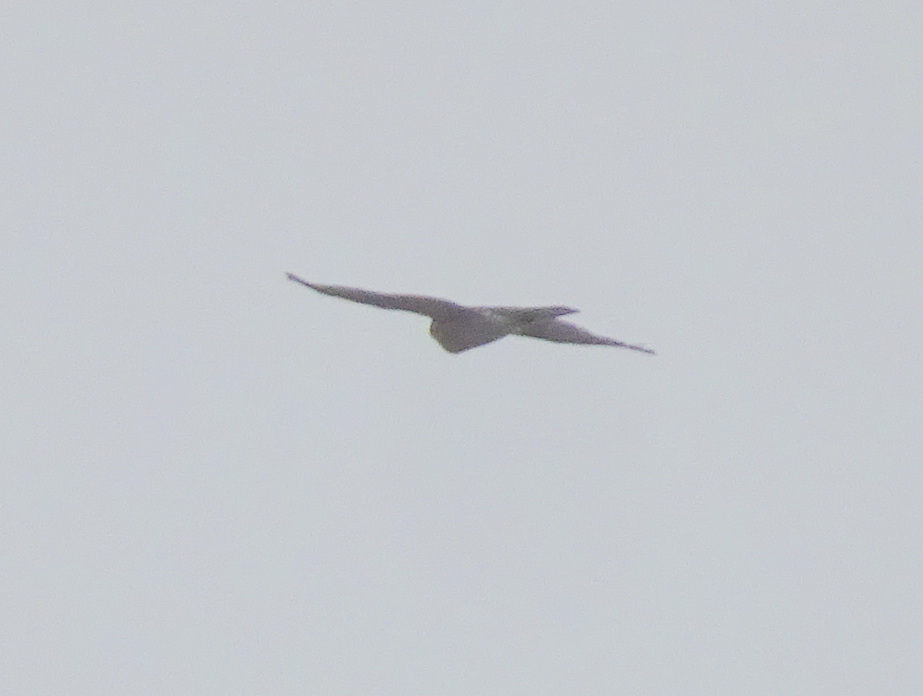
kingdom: Animalia
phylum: Chordata
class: Aves
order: Accipitriformes
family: Accipitridae
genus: Accipiter
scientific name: Accipiter nisus
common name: Eurasian sparrowhawk
